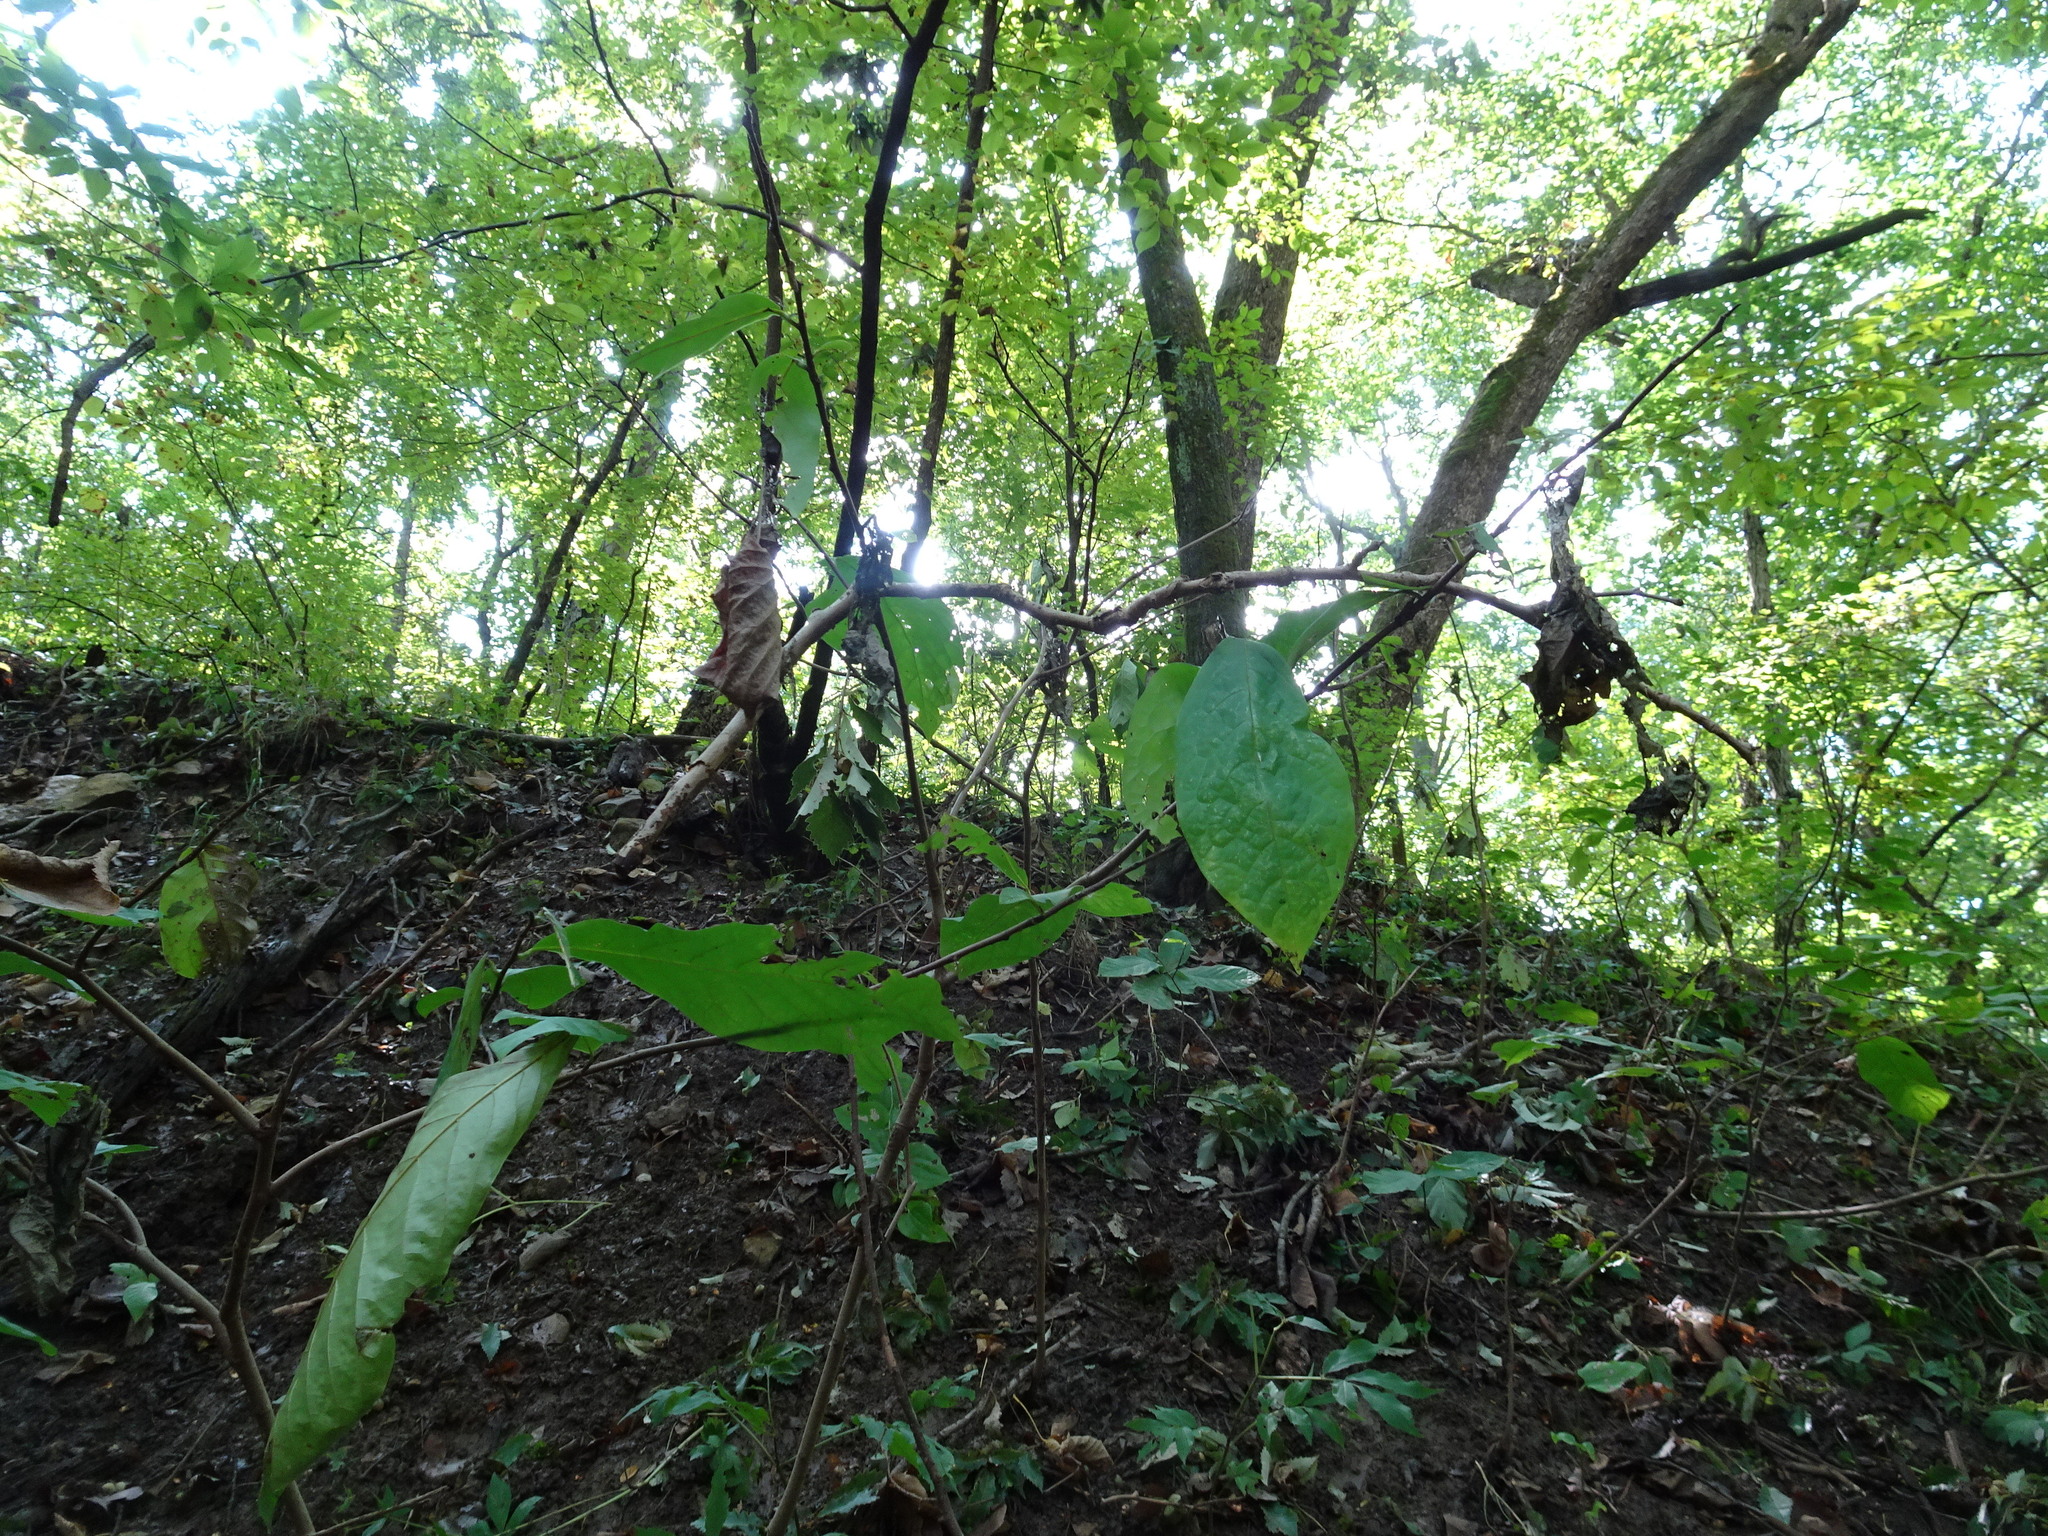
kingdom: Plantae
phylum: Tracheophyta
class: Magnoliopsida
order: Magnoliales
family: Annonaceae
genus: Asimina
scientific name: Asimina triloba
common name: Dog-banana
